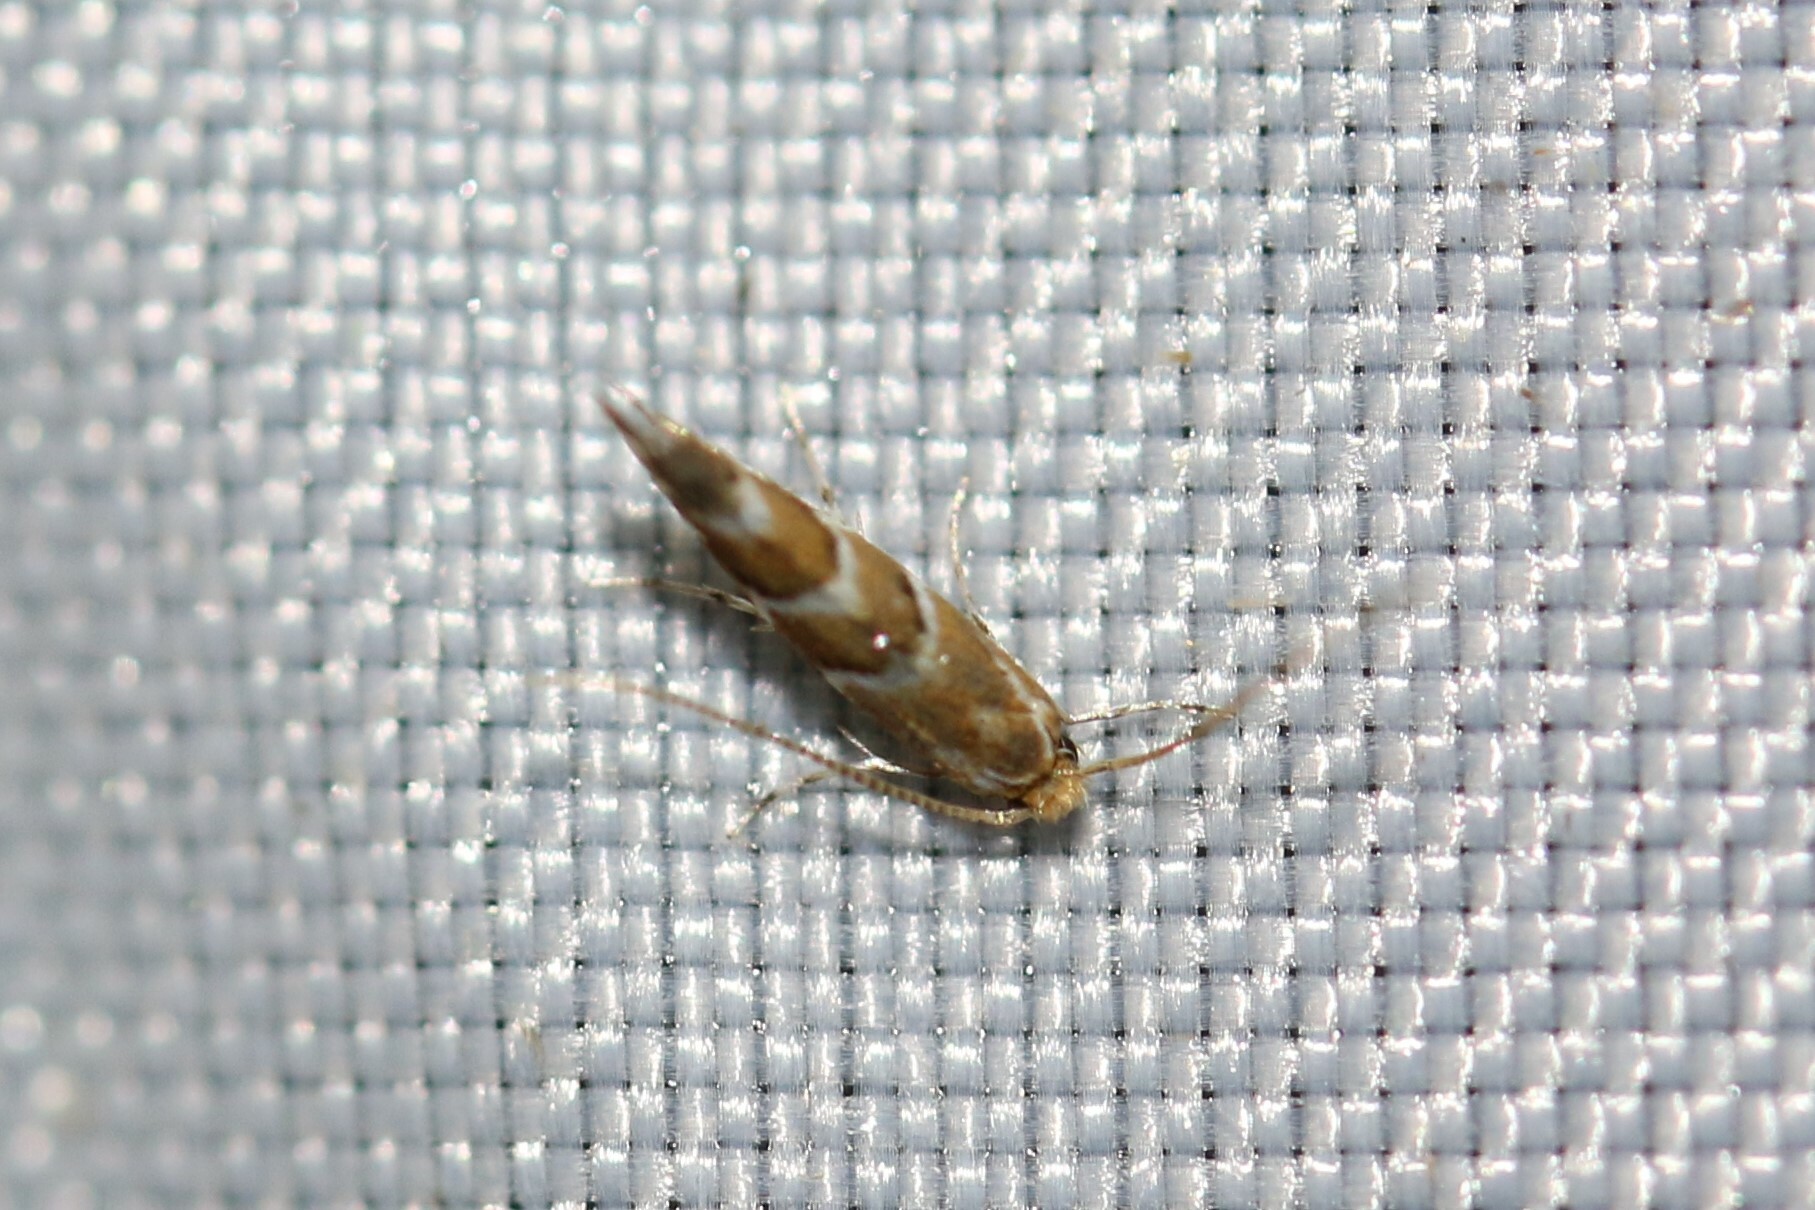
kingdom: Animalia
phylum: Arthropoda
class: Insecta
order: Lepidoptera
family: Gracillariidae
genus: Cameraria
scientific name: Cameraria ohridella
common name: Horse-chestnut leaf-miner
